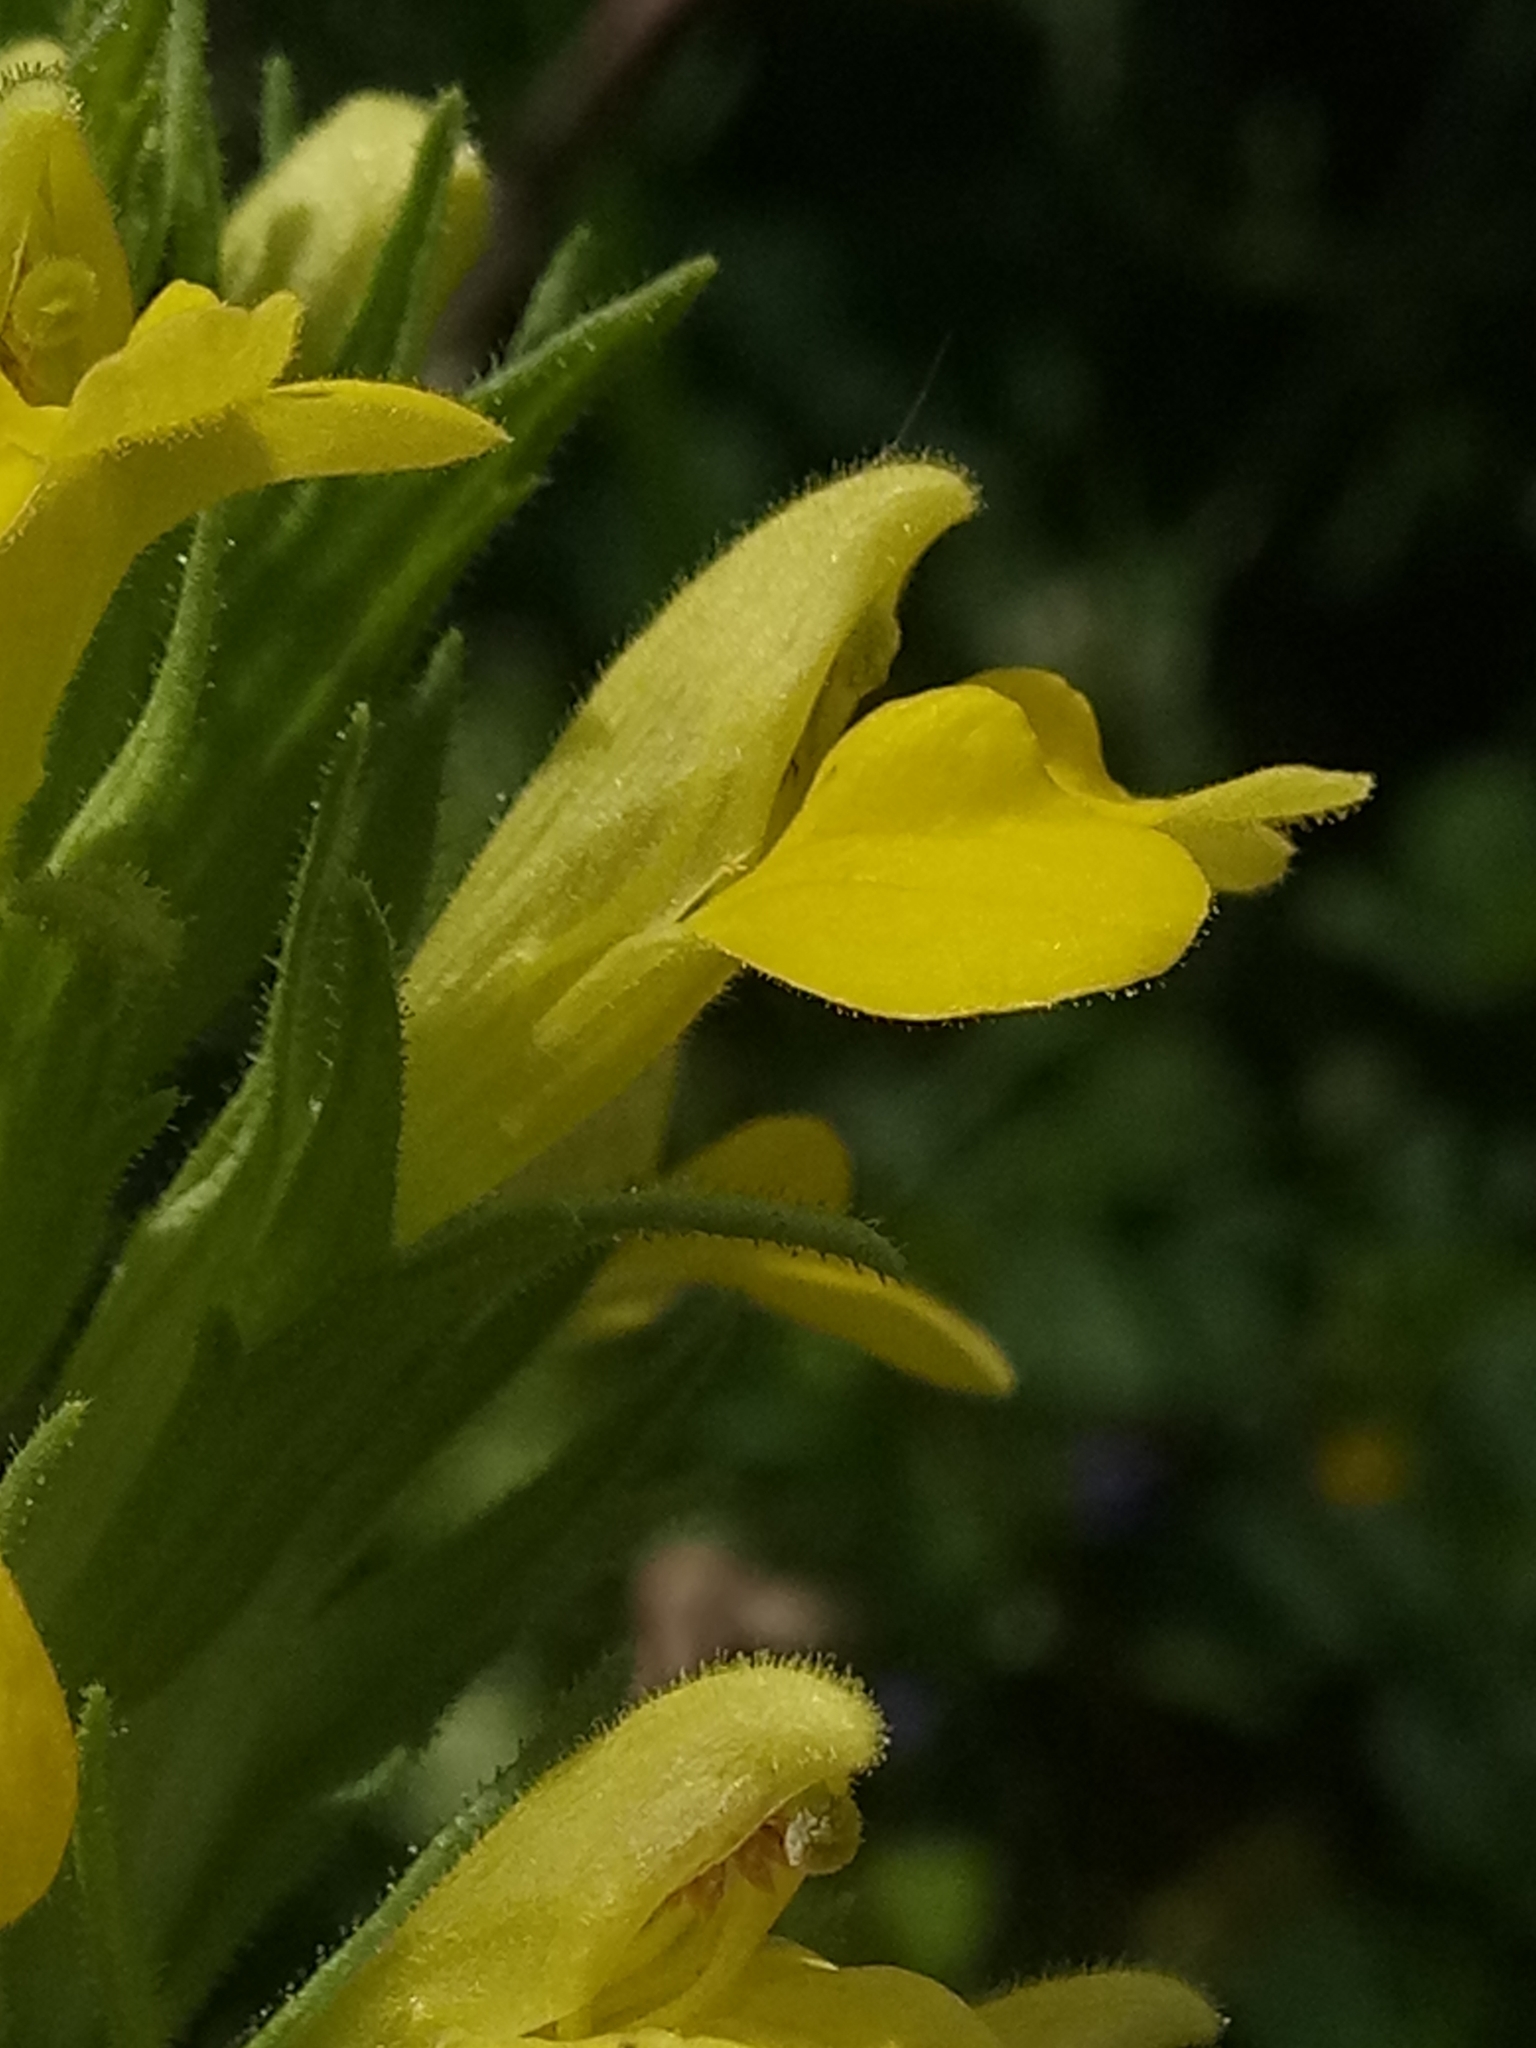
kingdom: Plantae
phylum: Tracheophyta
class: Magnoliopsida
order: Lamiales
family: Orobanchaceae
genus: Bellardia
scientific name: Bellardia viscosa
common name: Sticky parentucellia
